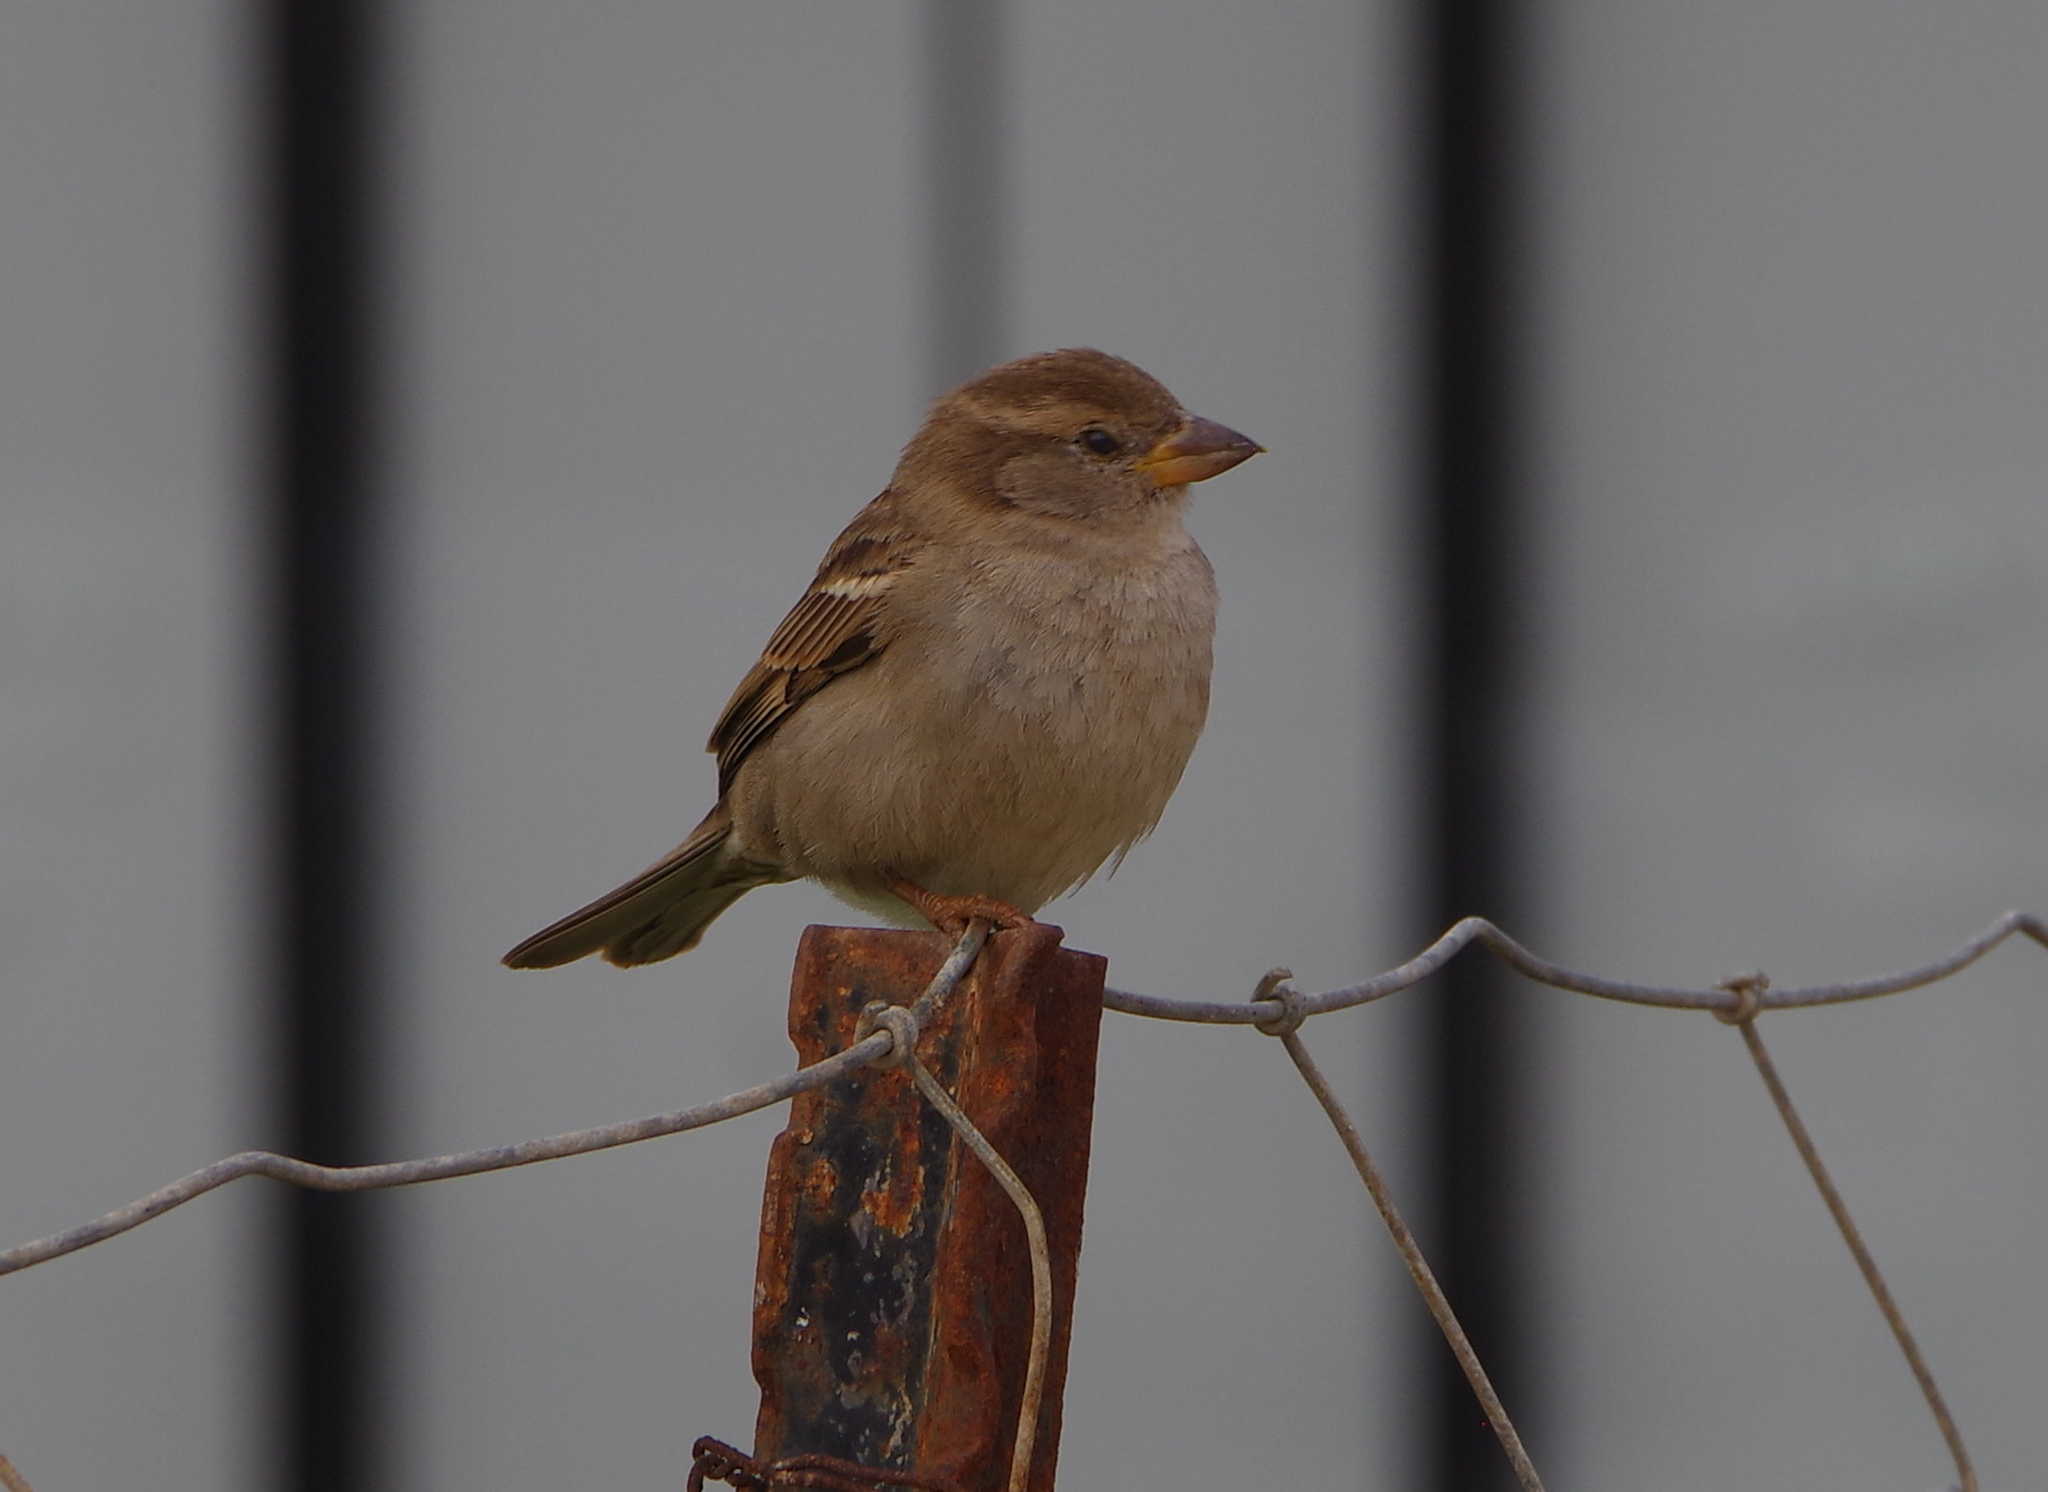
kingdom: Animalia
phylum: Chordata
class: Aves
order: Passeriformes
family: Passeridae
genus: Passer
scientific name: Passer domesticus
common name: House sparrow
